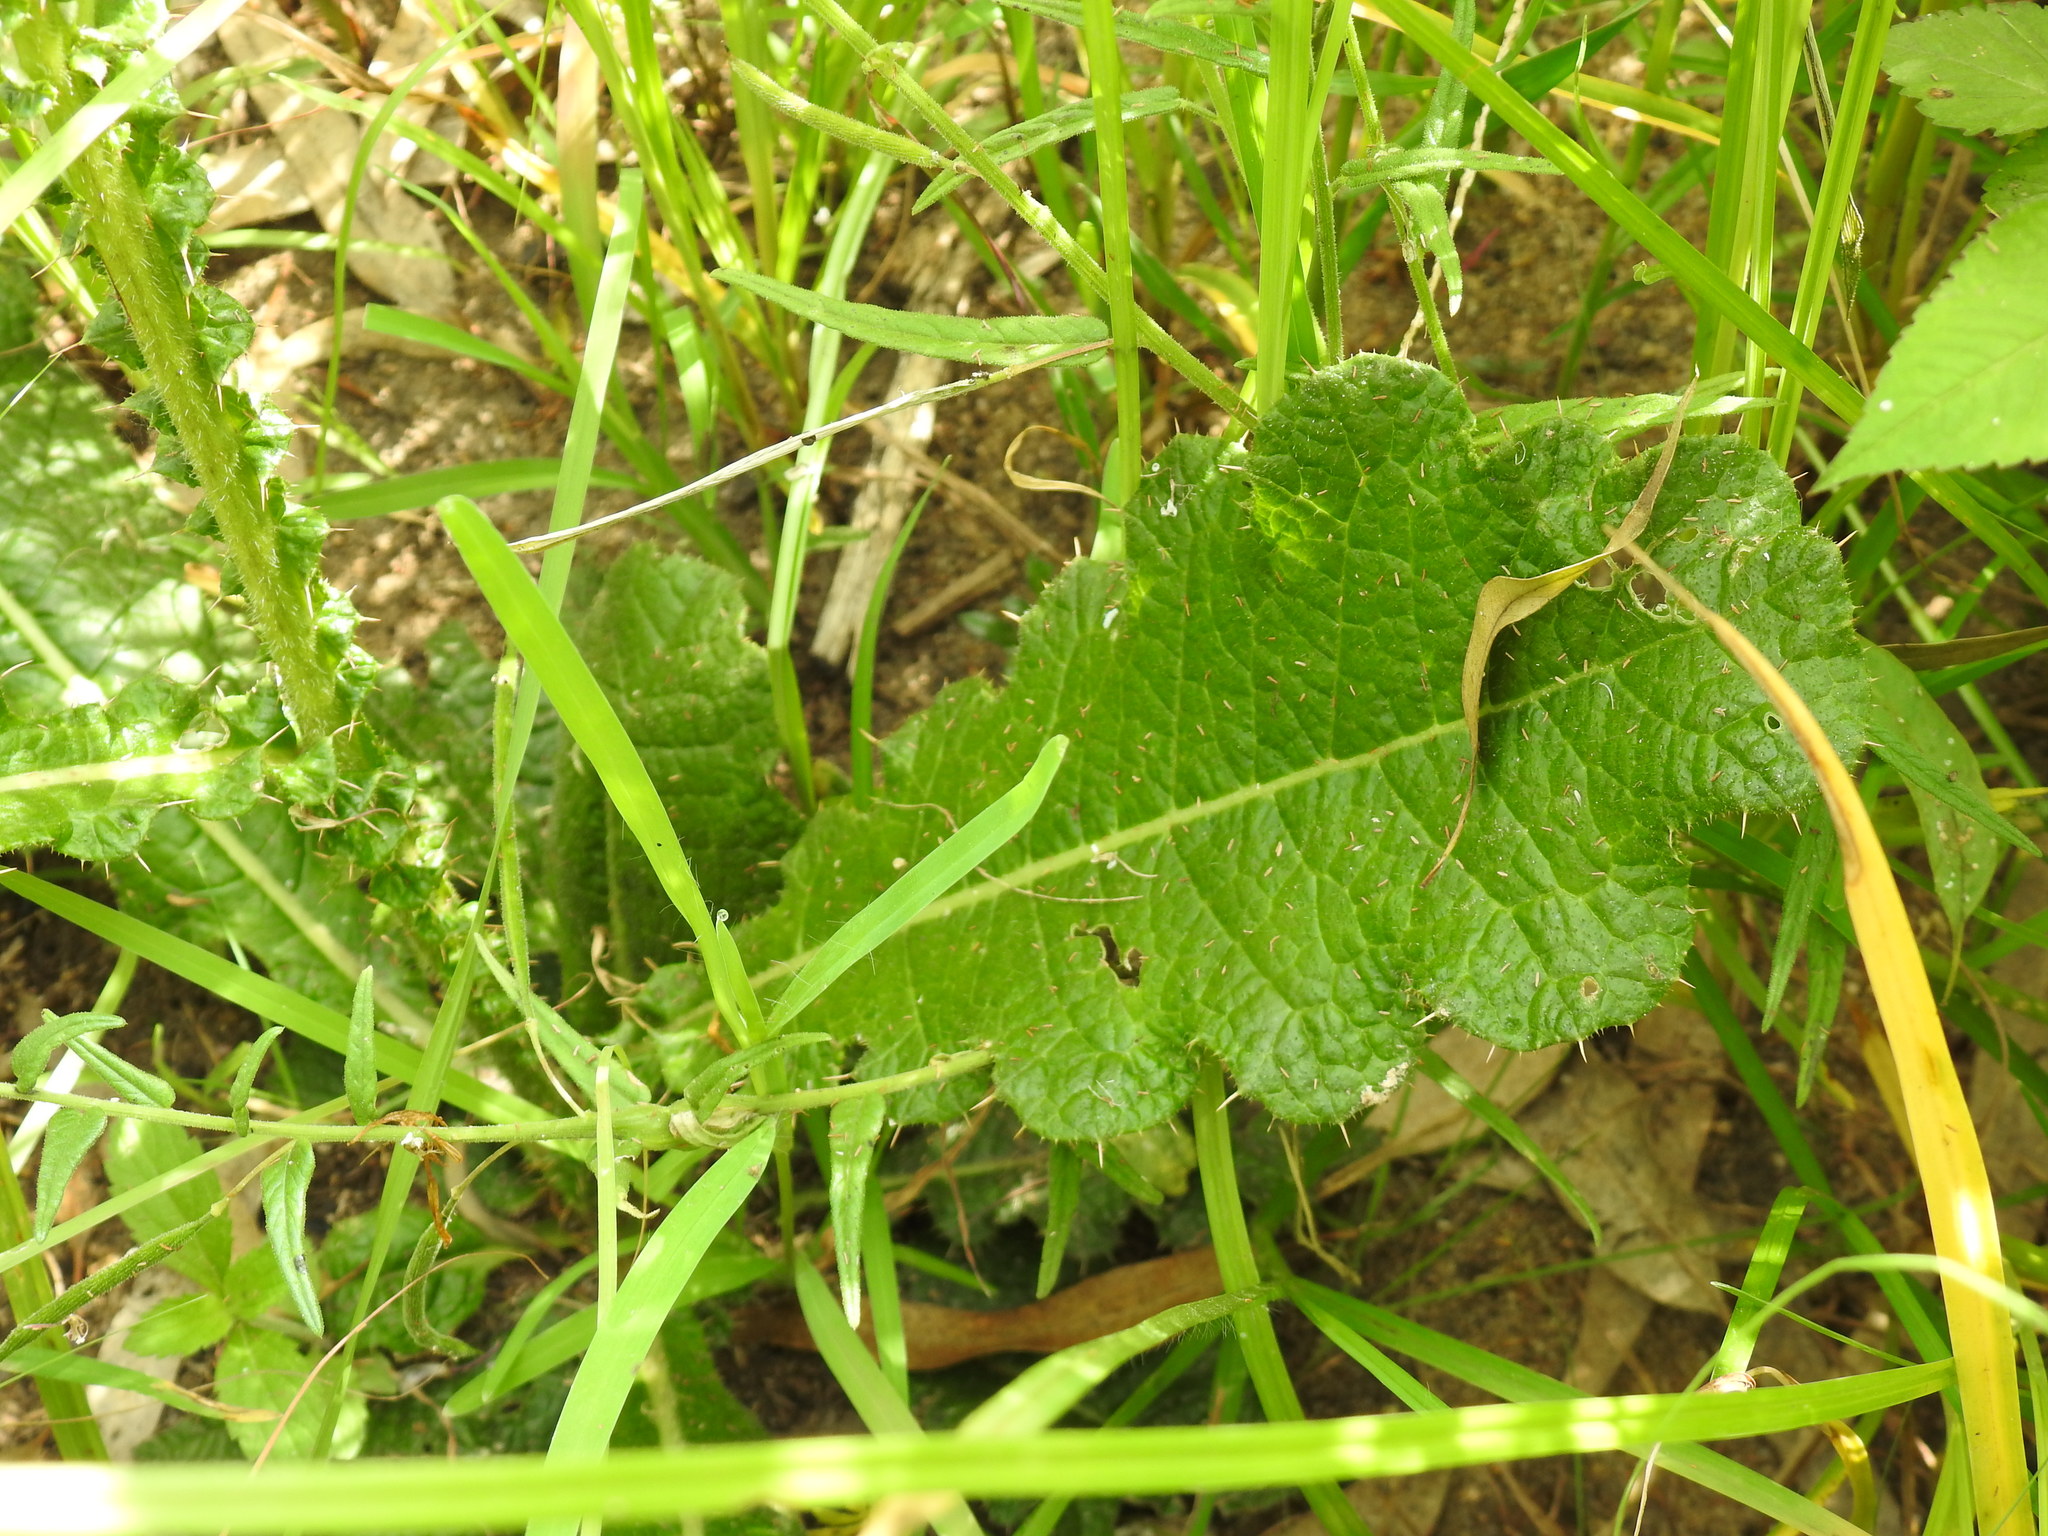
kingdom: Plantae
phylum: Tracheophyta
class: Magnoliopsida
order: Asterales
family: Asteraceae
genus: Berkheya
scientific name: Berkheya radula
